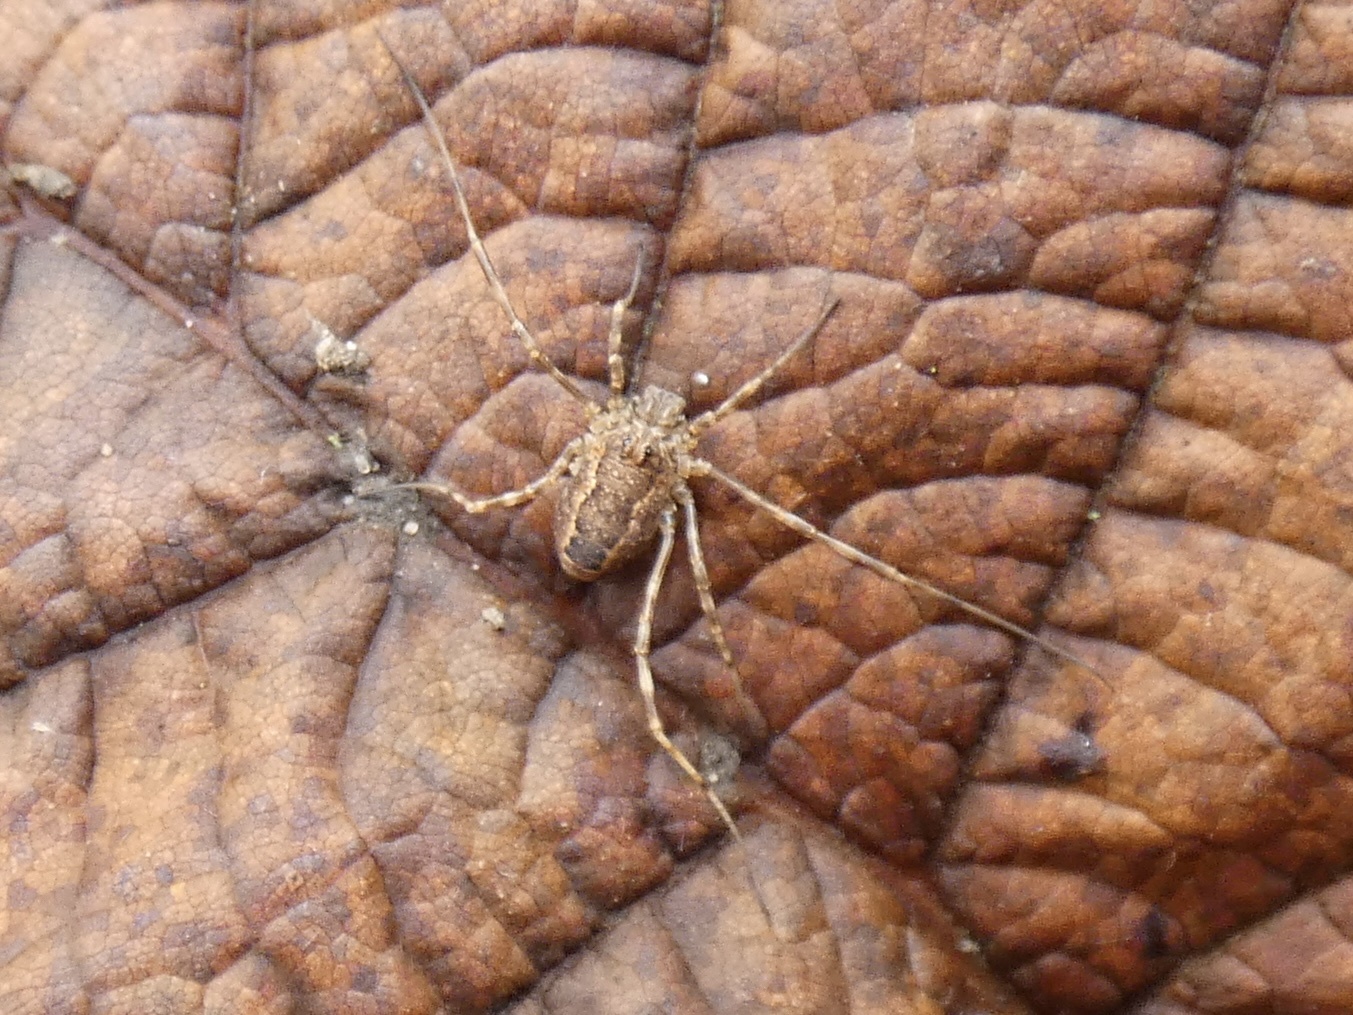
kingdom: Animalia
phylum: Arthropoda
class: Arachnida
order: Opiliones
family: Phalangiidae
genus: Rilaena
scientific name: Rilaena triangularis
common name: Spring harvestman
